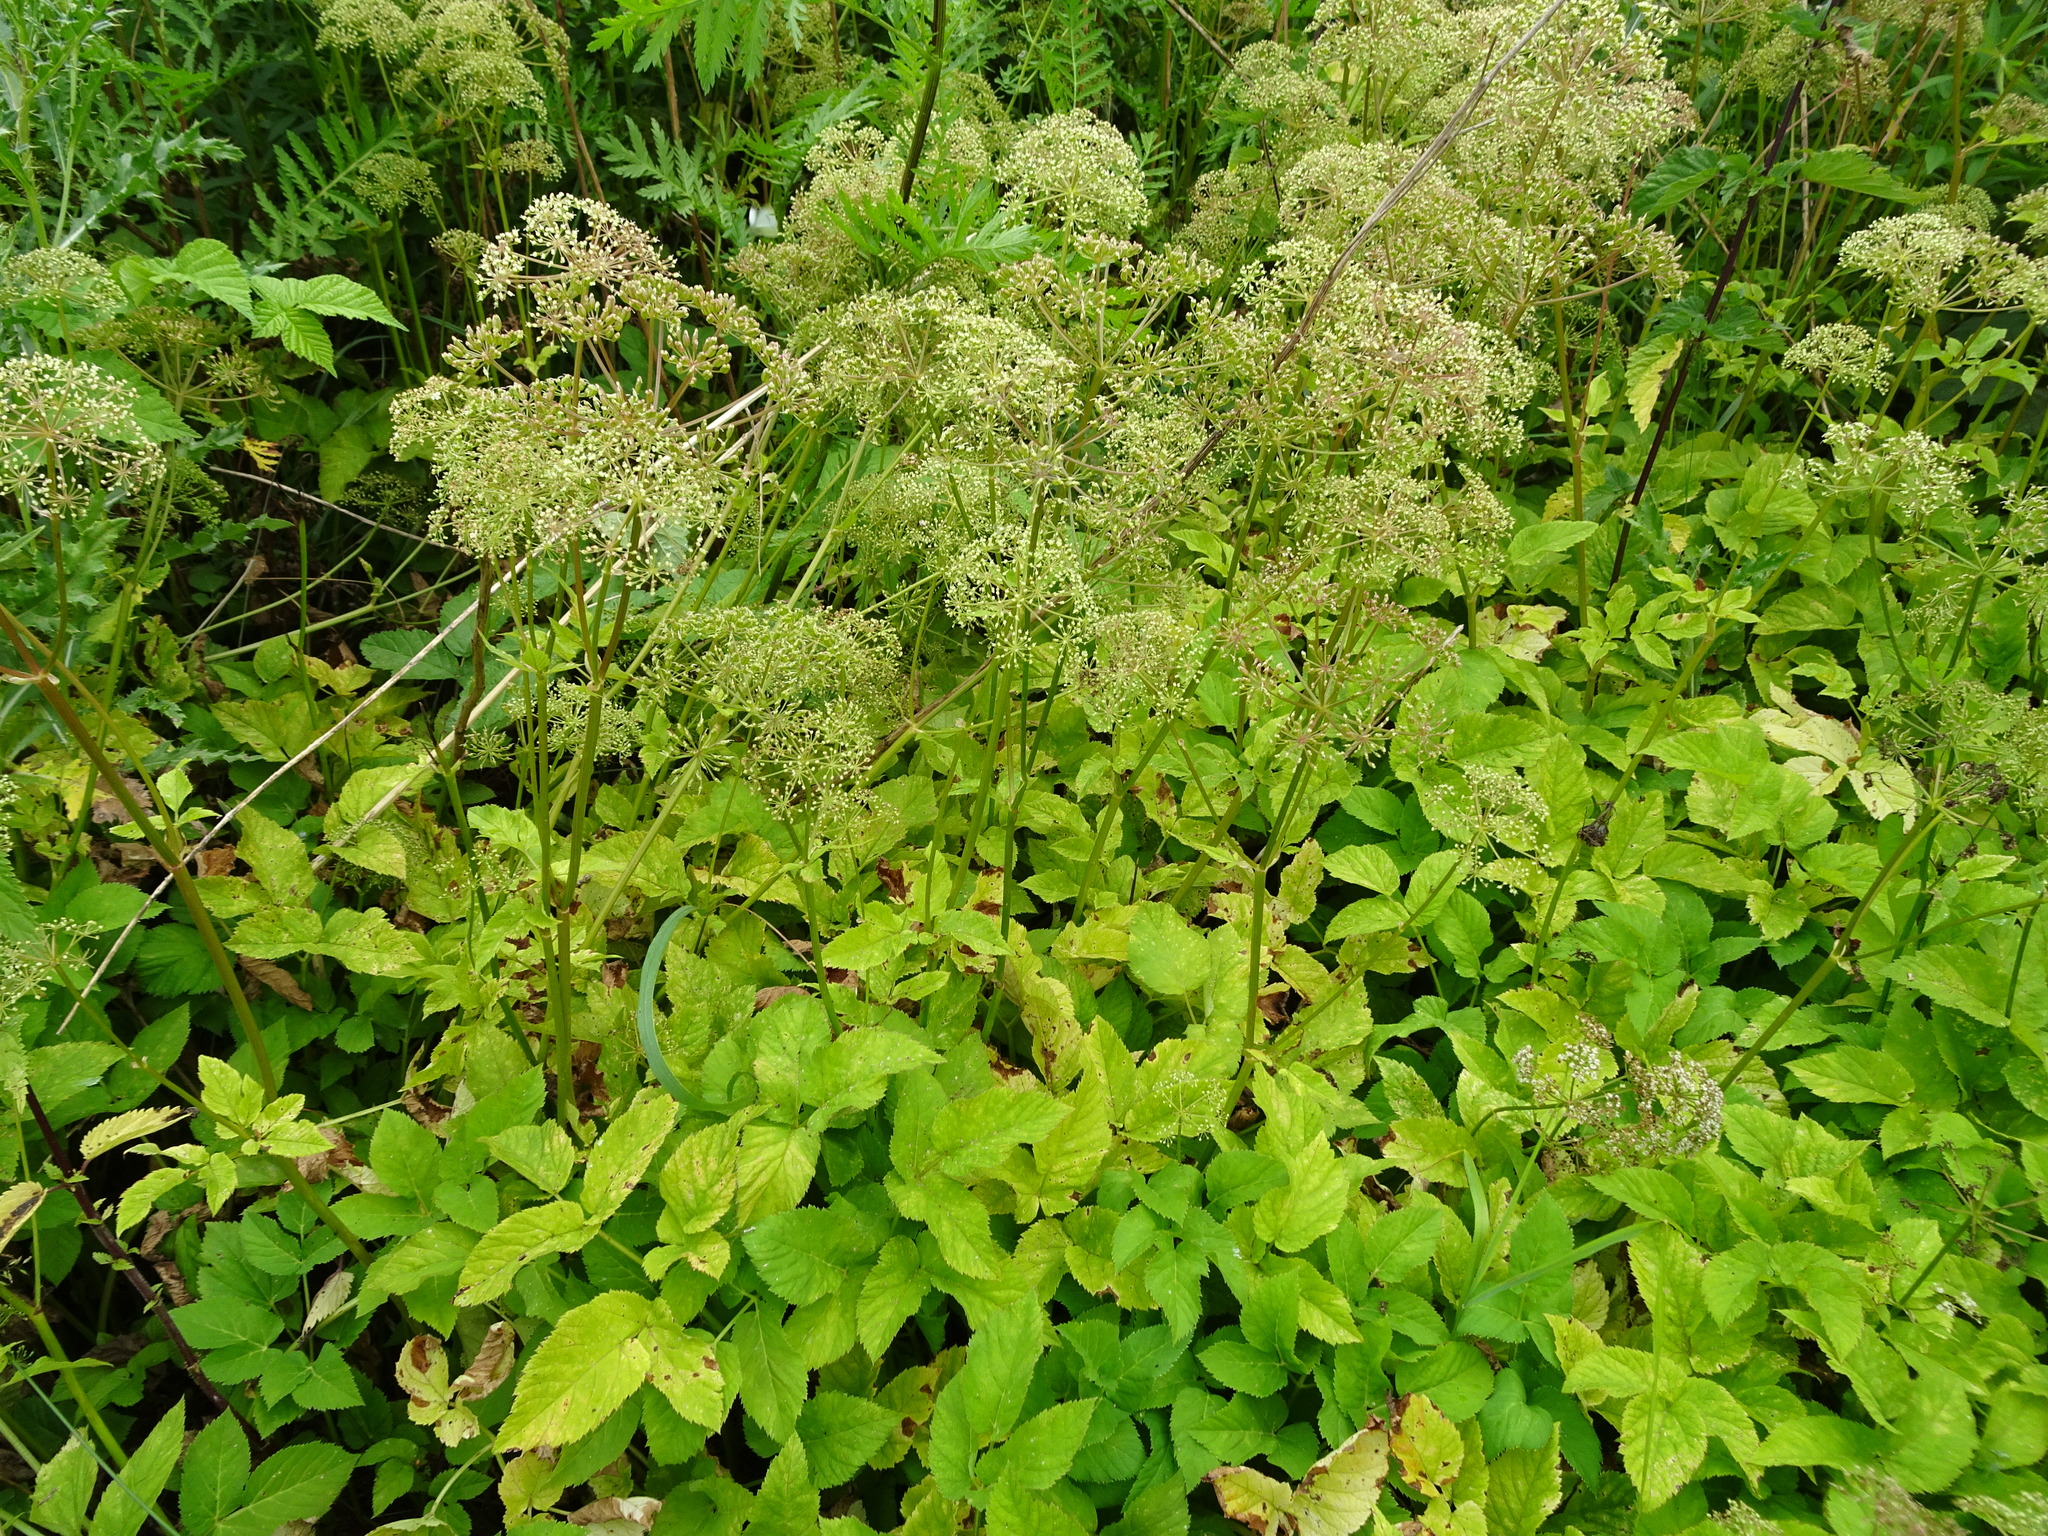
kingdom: Plantae
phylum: Tracheophyta
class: Magnoliopsida
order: Apiales
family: Apiaceae
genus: Aegopodium
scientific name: Aegopodium podagraria
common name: Ground-elder
